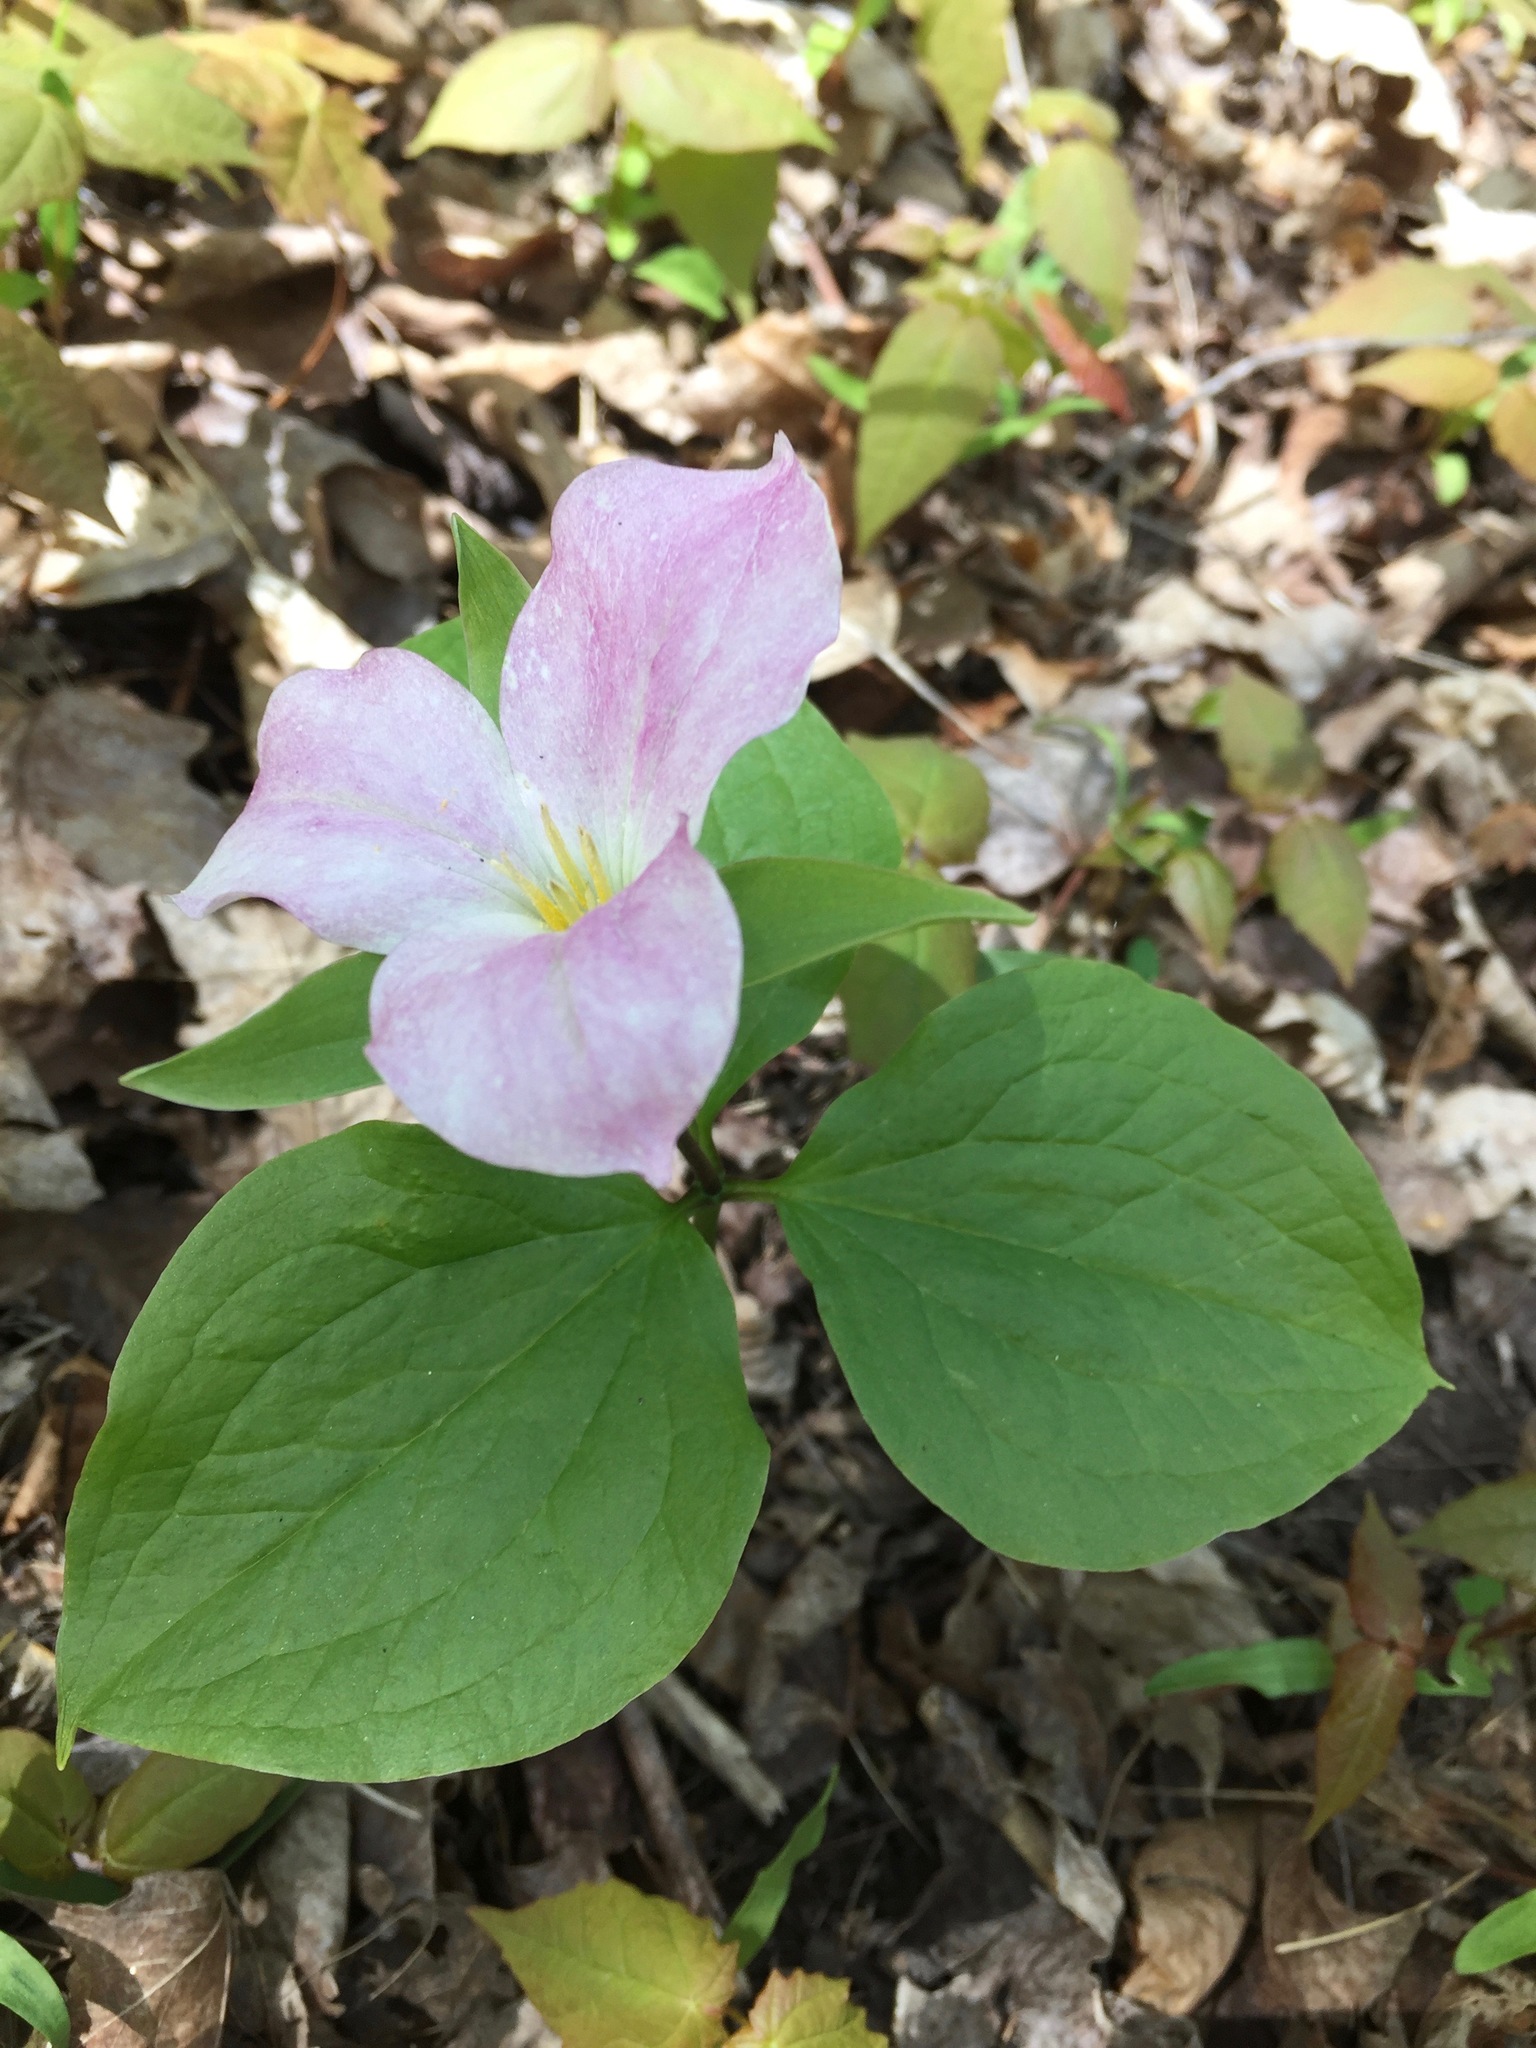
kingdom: Plantae
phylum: Tracheophyta
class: Liliopsida
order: Liliales
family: Melanthiaceae
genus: Trillium
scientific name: Trillium grandiflorum
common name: Great white trillium
